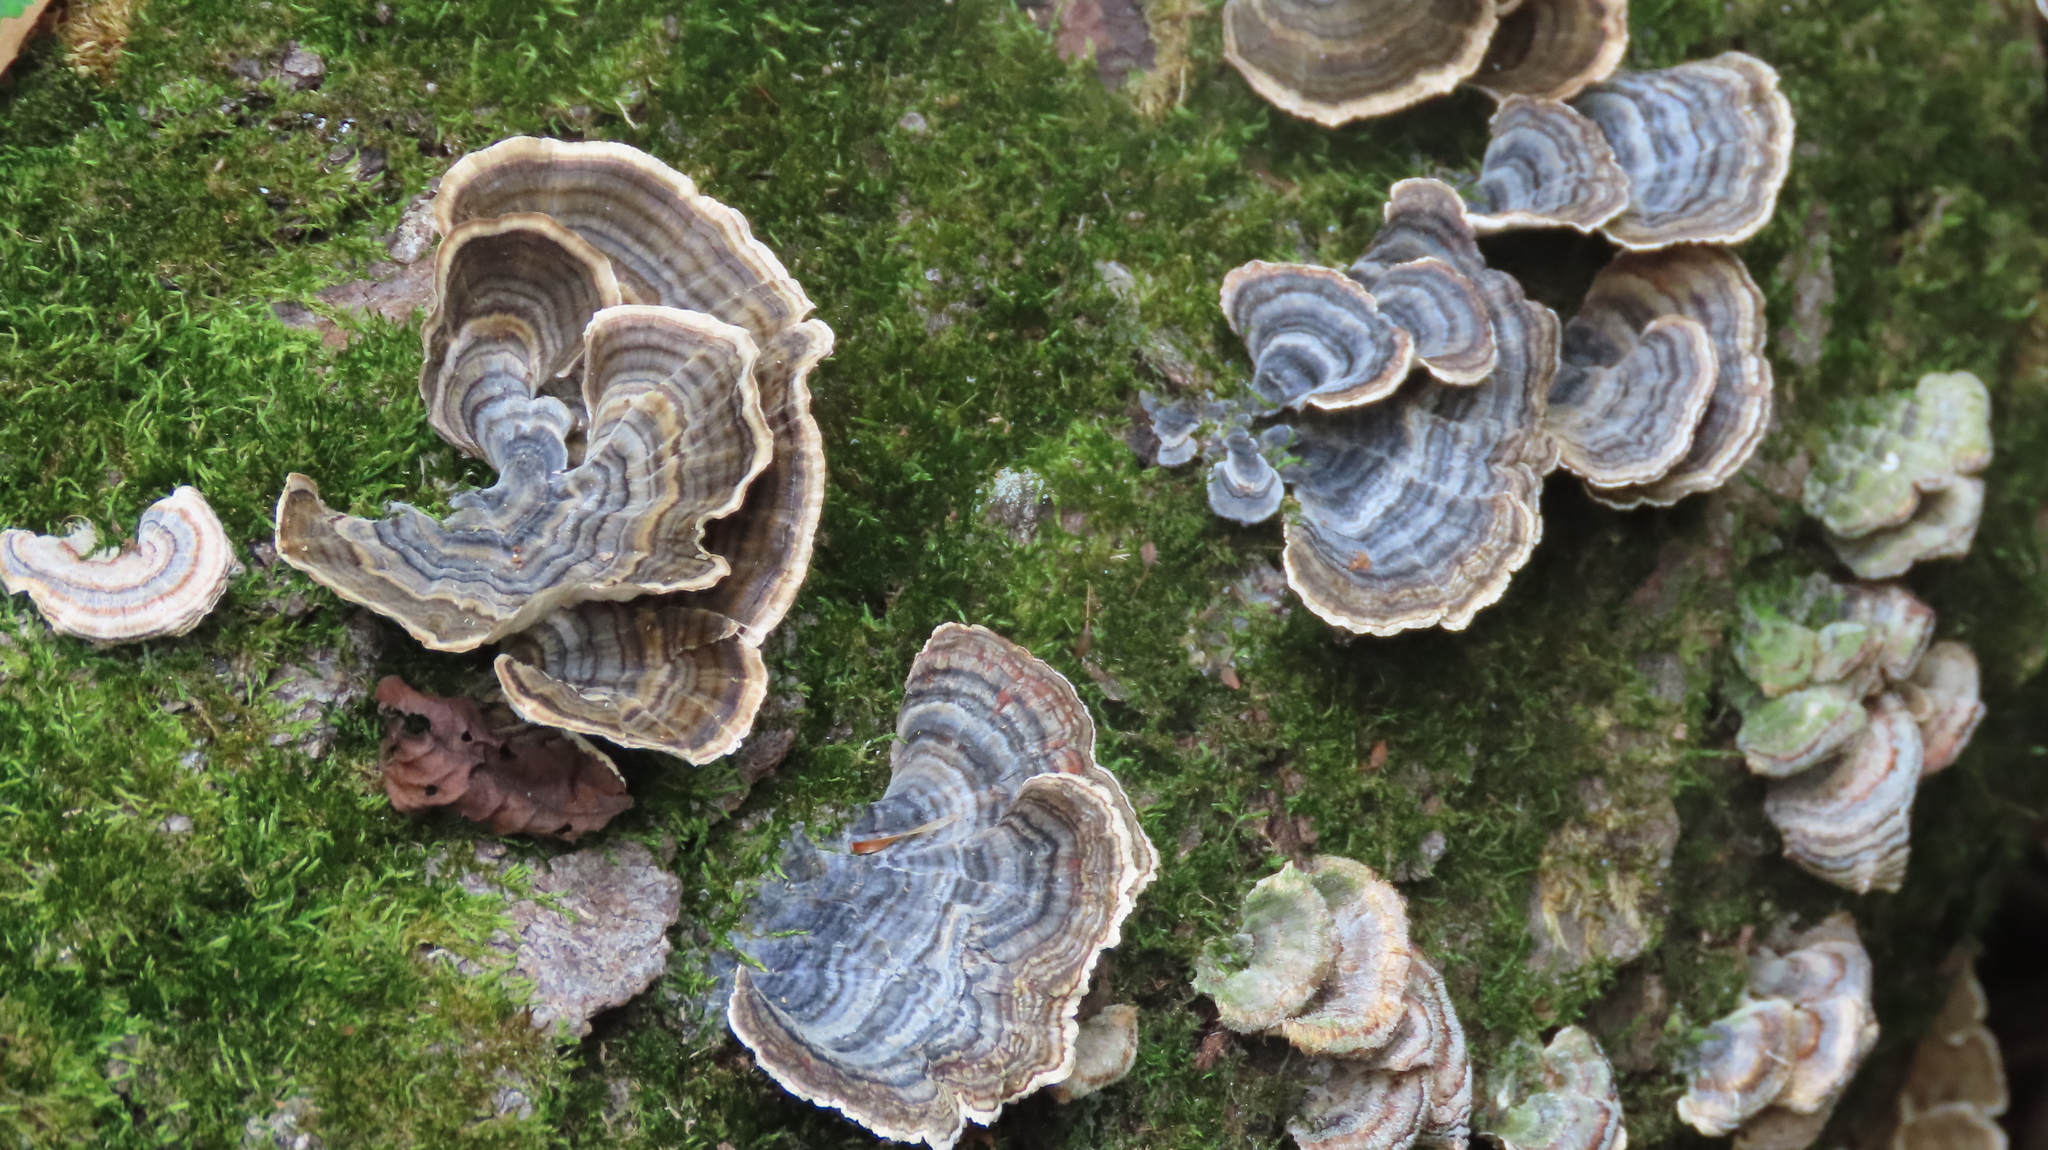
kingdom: Fungi
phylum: Basidiomycota
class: Agaricomycetes
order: Polyporales
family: Polyporaceae
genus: Trametes
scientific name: Trametes versicolor
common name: Turkeytail
